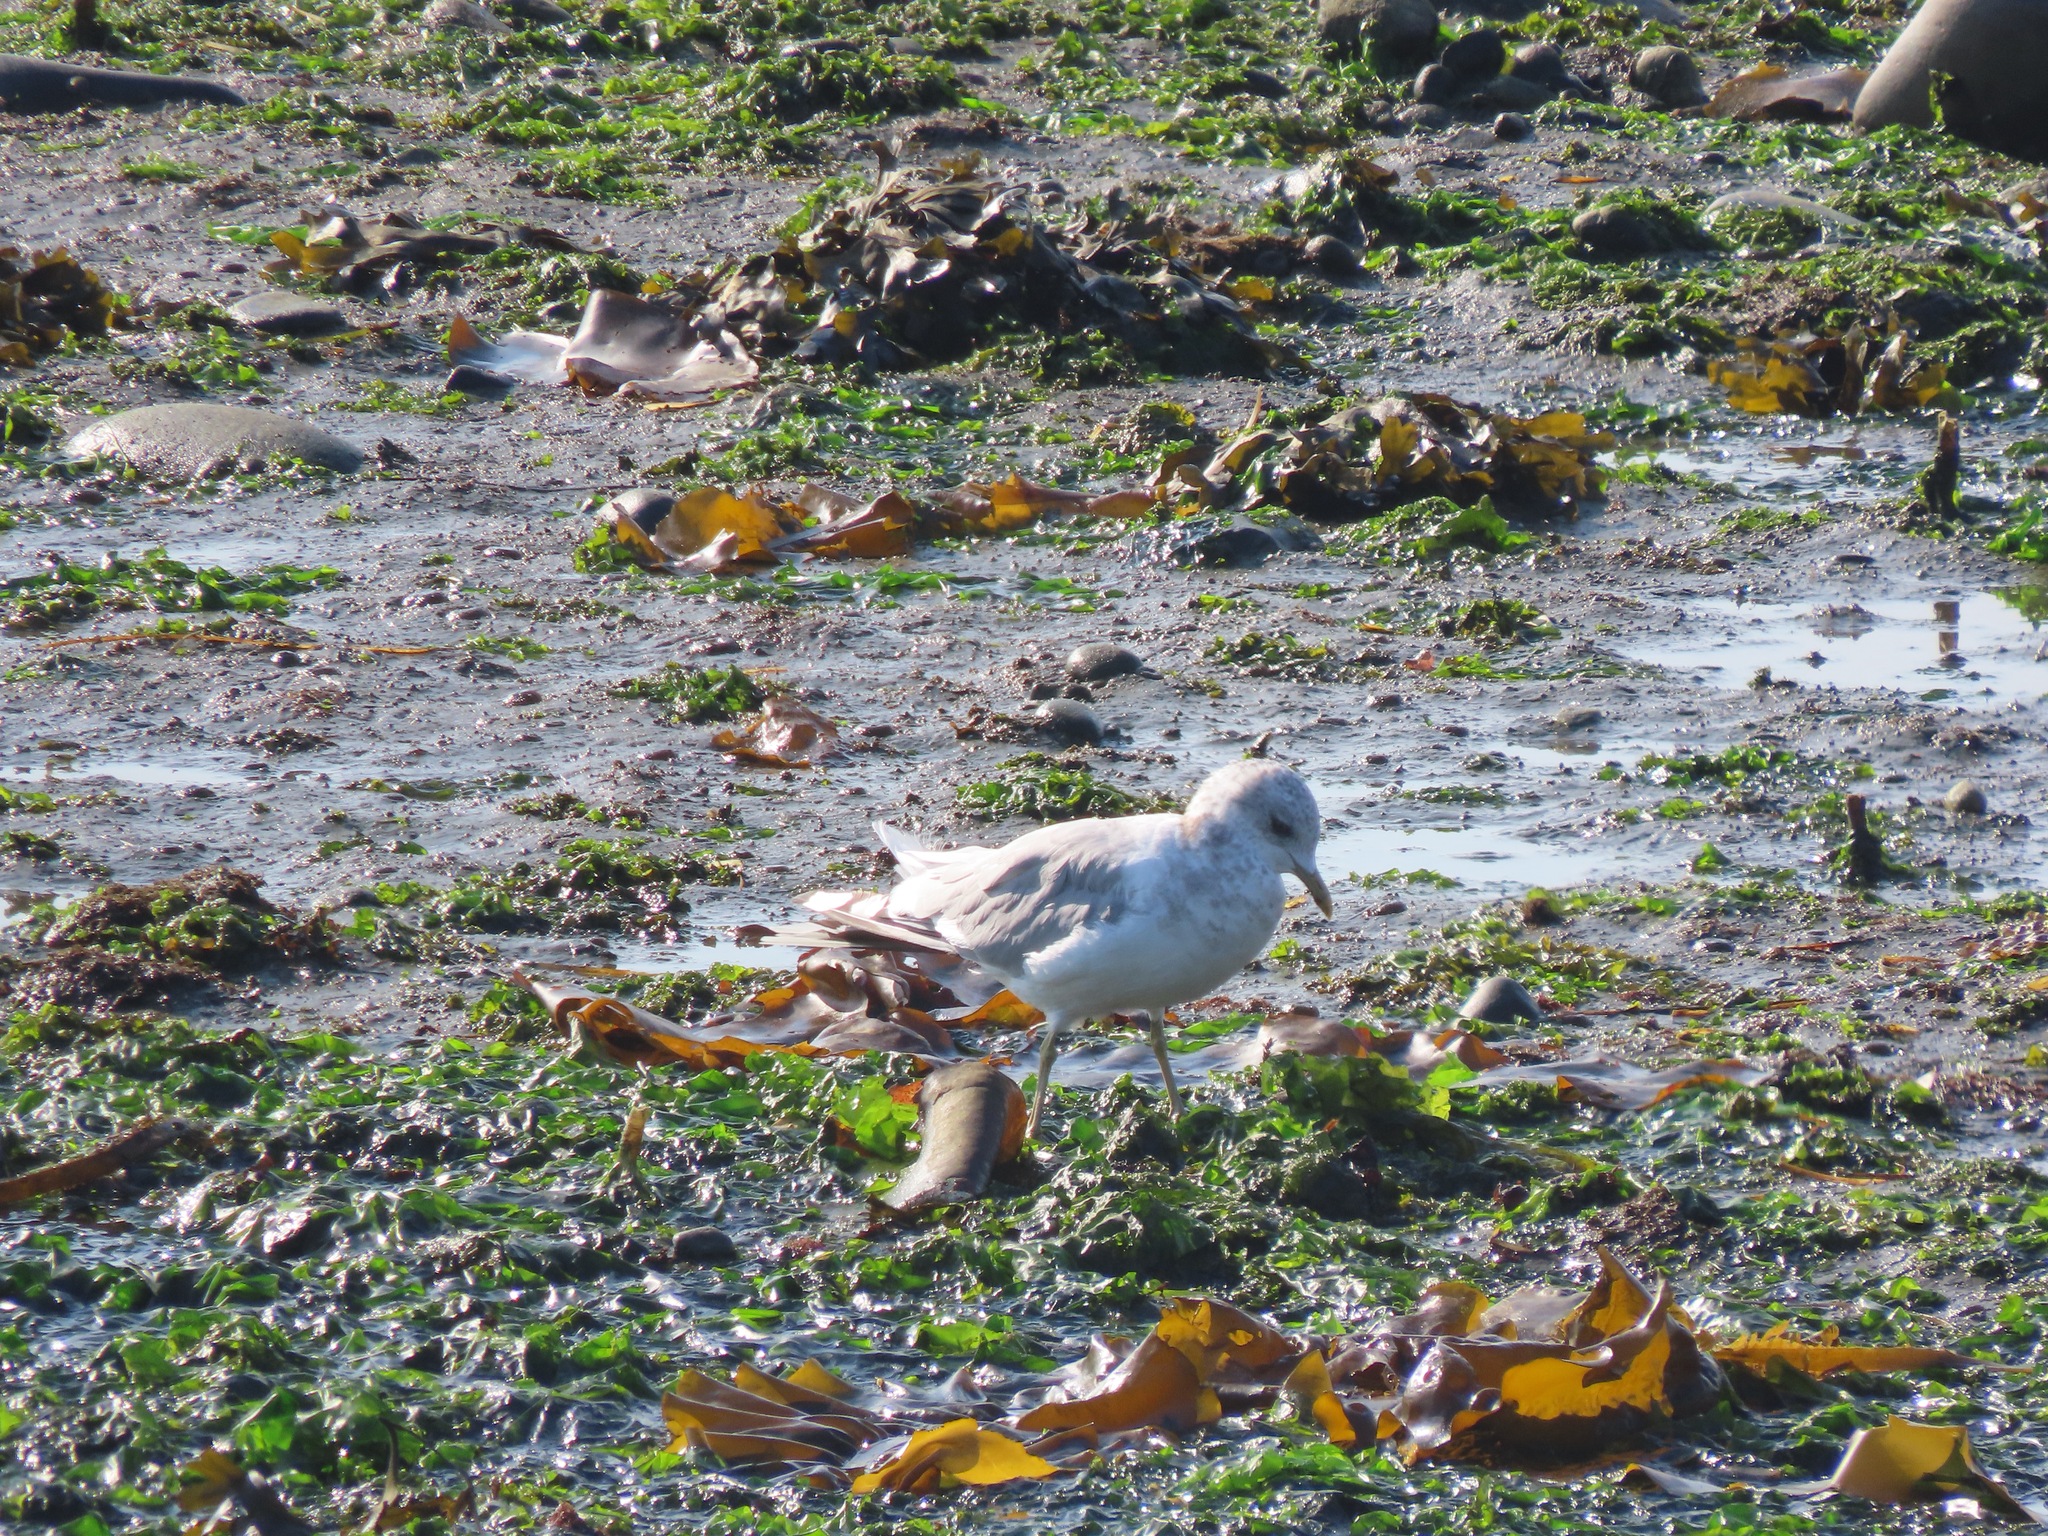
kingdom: Animalia
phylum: Chordata
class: Aves
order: Charadriiformes
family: Laridae
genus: Larus
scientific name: Larus brachyrhynchus
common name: Short-billed gull
